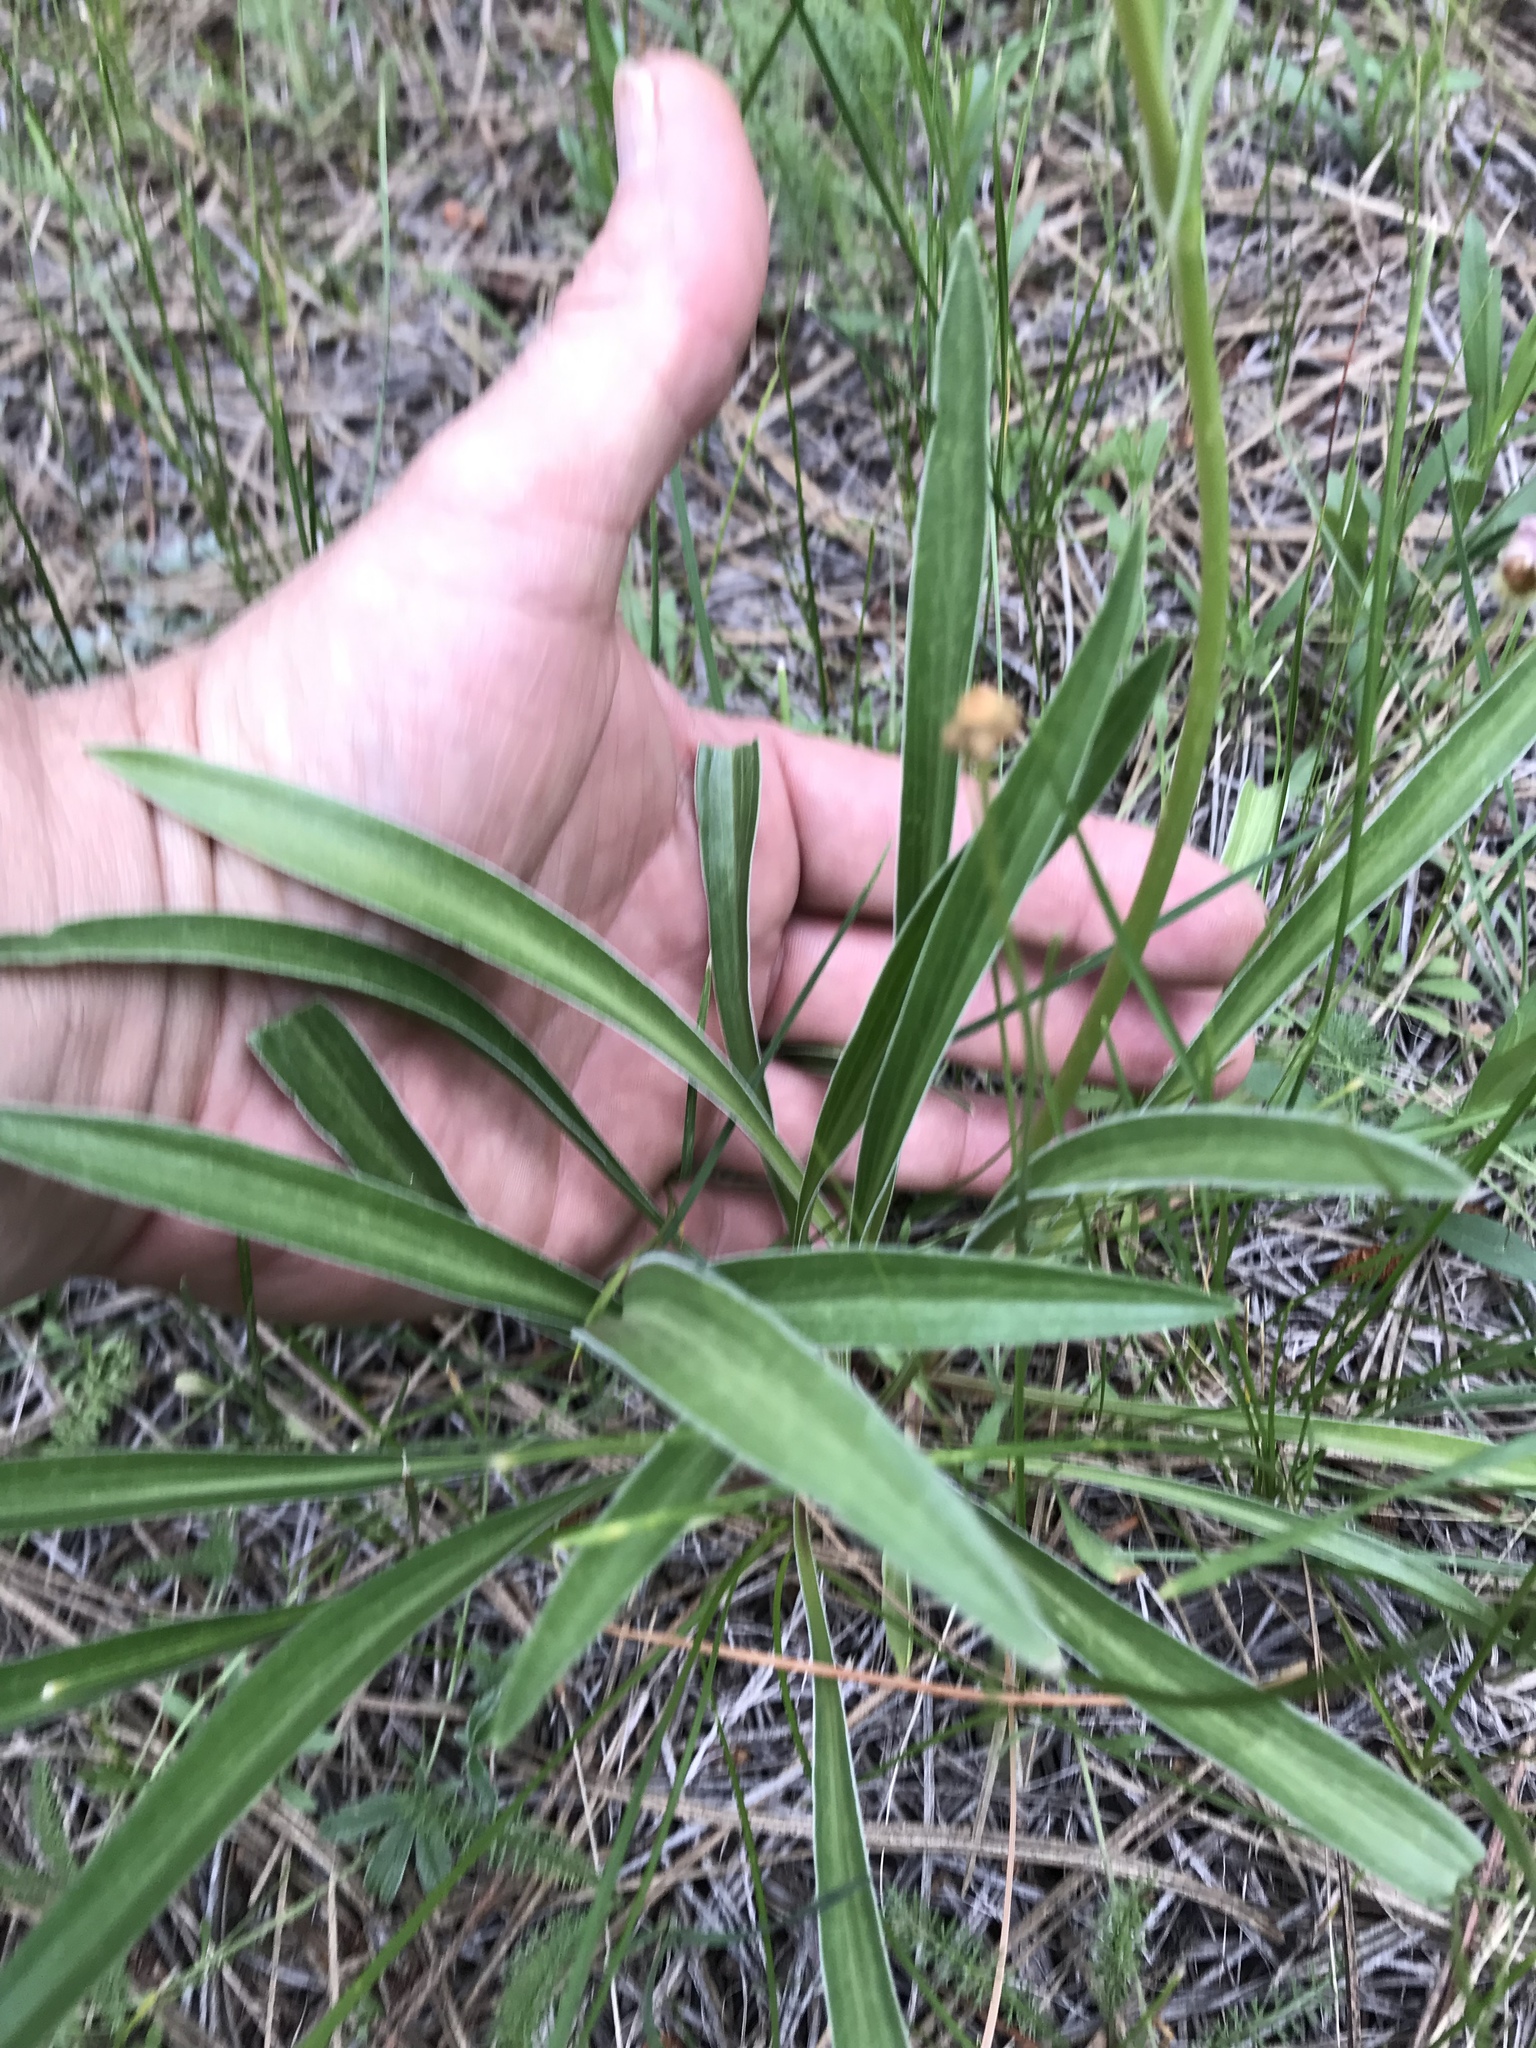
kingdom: Plantae
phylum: Tracheophyta
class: Magnoliopsida
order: Dipsacales
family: Caprifoliaceae
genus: Valeriana
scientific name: Valeriana edulis
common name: Taproot valerian
